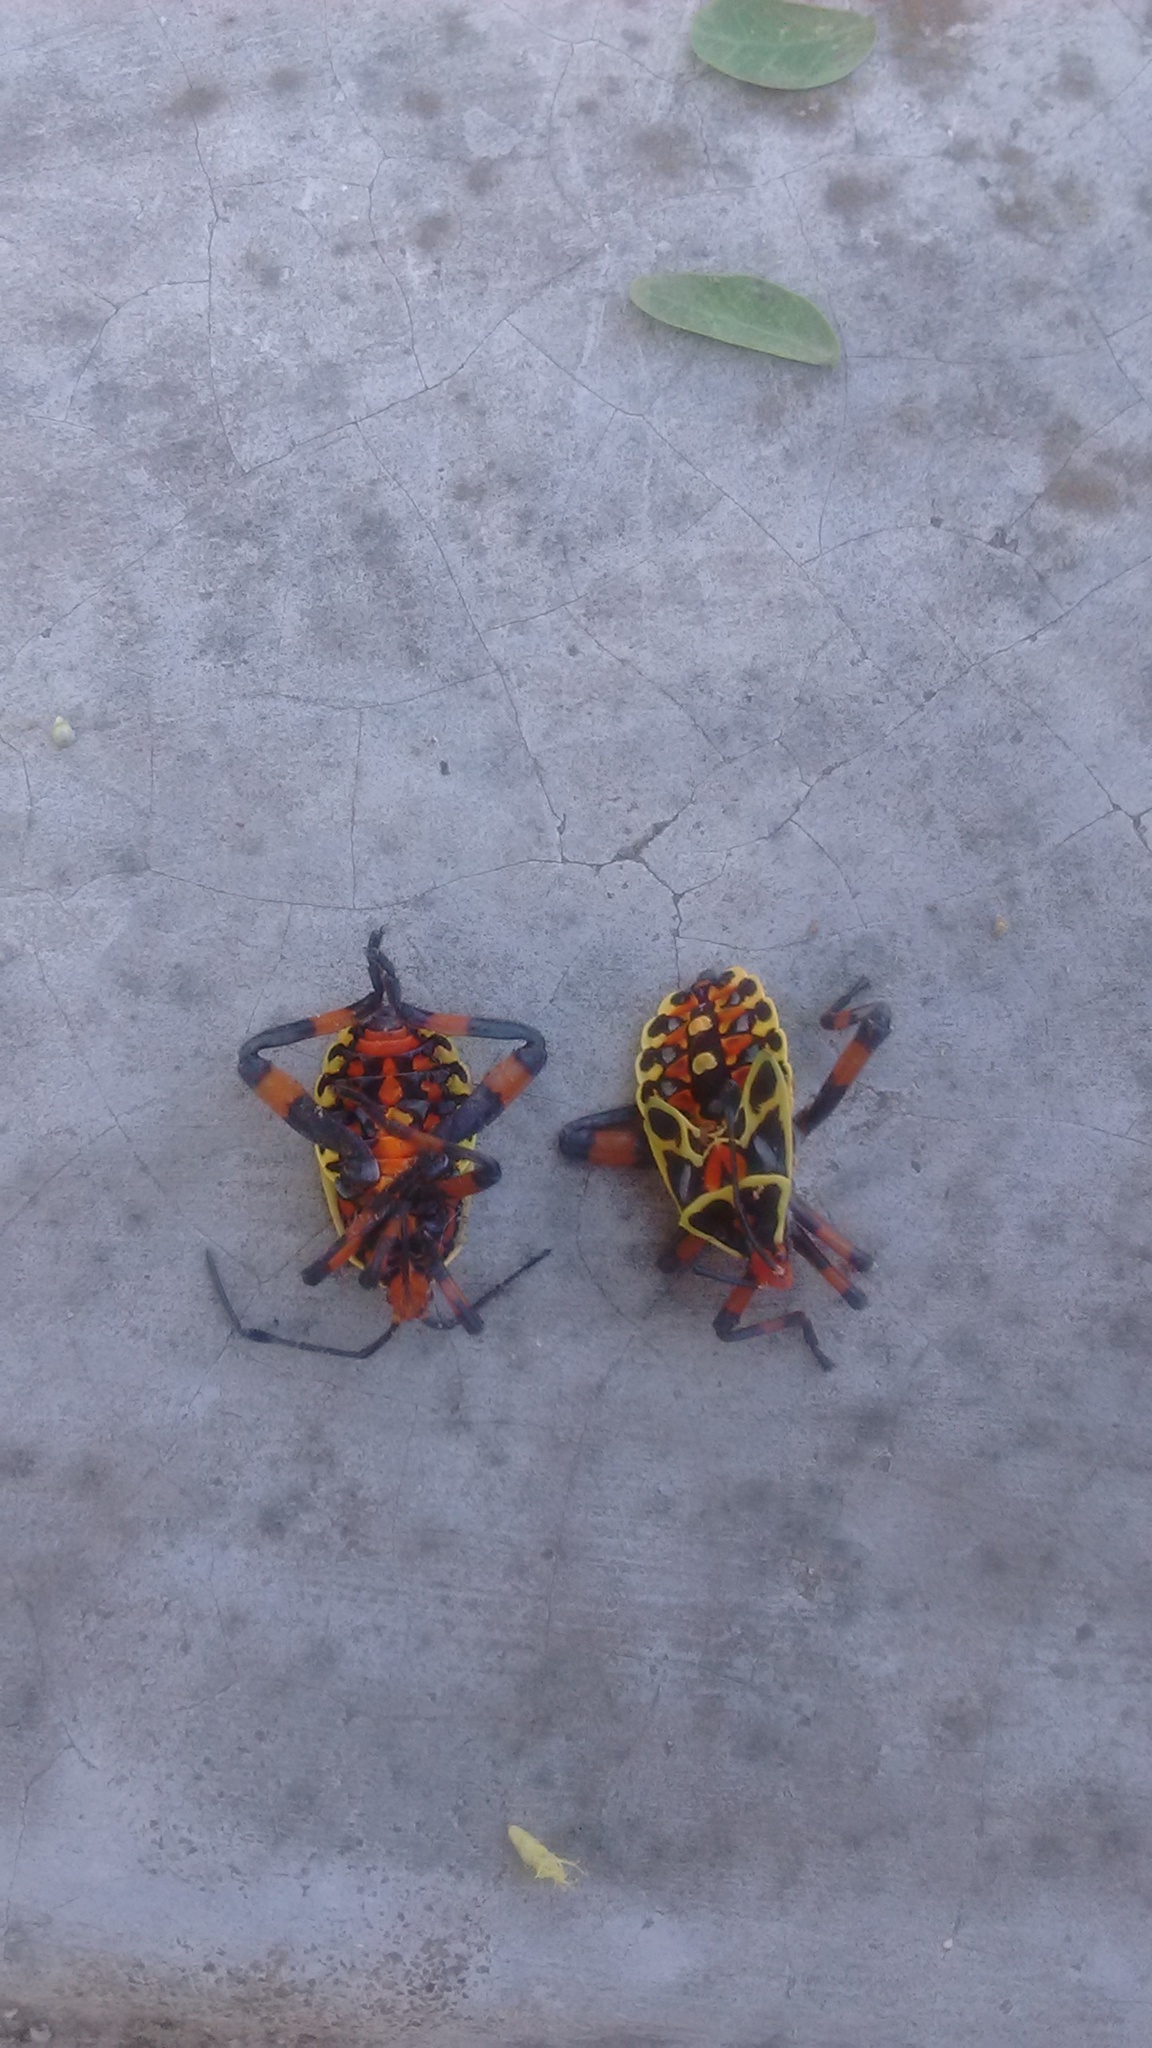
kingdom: Animalia
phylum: Arthropoda
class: Insecta
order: Hemiptera
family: Coreidae
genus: Pachylis
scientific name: Pachylis nervosus
